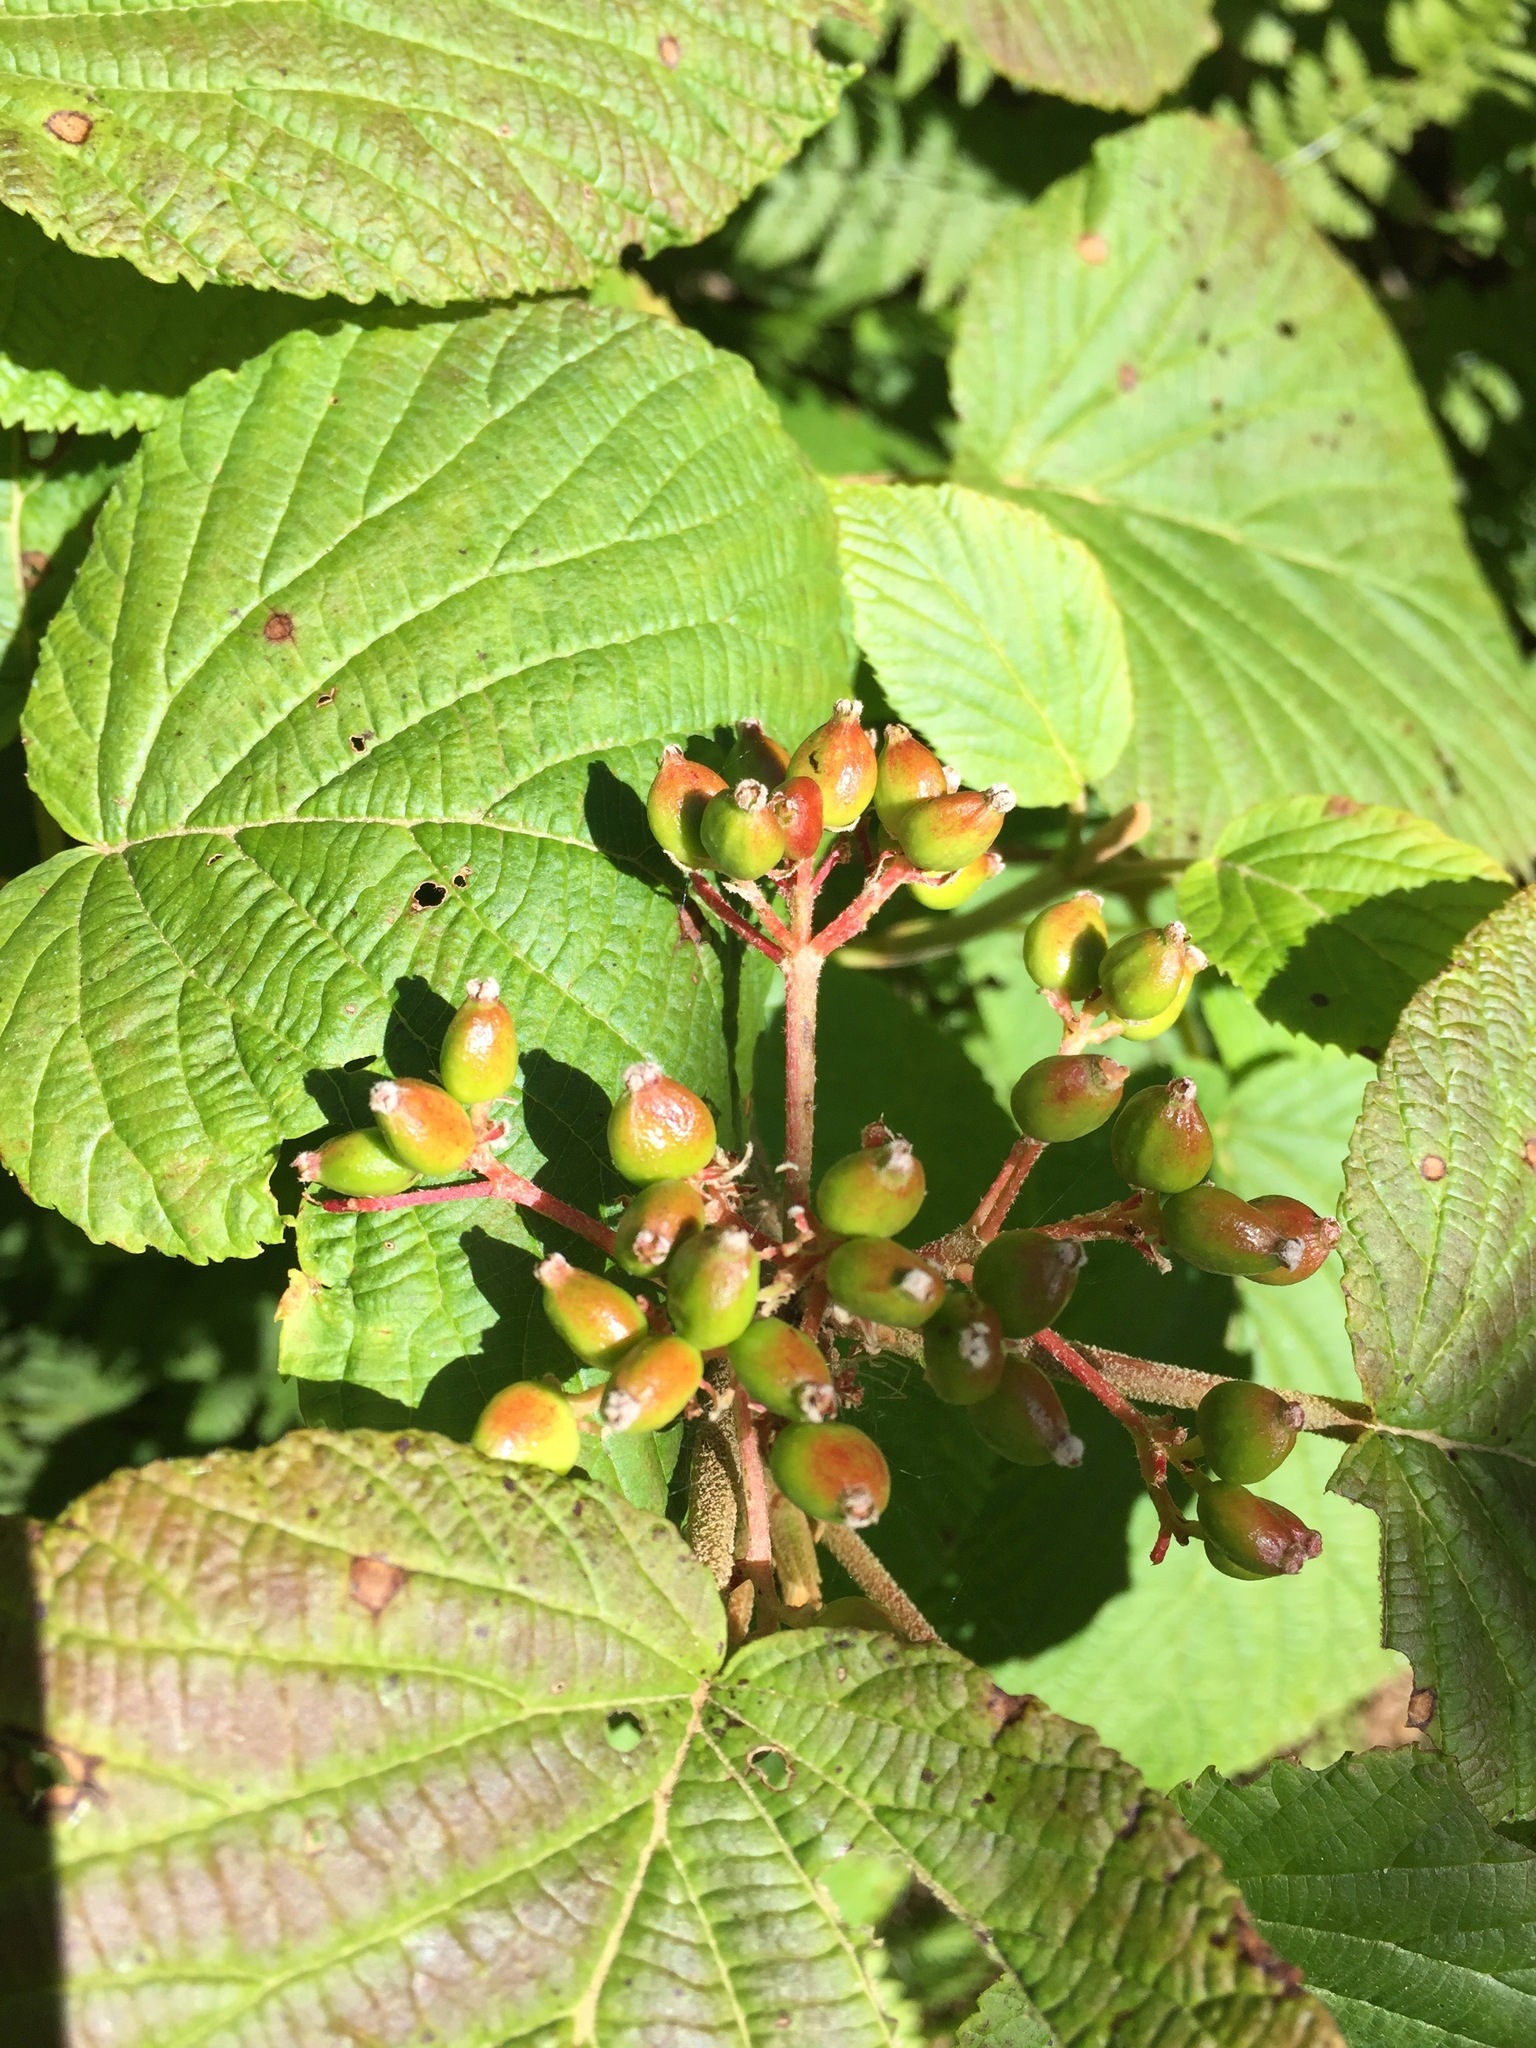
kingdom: Plantae
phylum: Tracheophyta
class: Magnoliopsida
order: Dipsacales
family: Viburnaceae
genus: Viburnum
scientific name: Viburnum lantanoides
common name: Hobblebush
